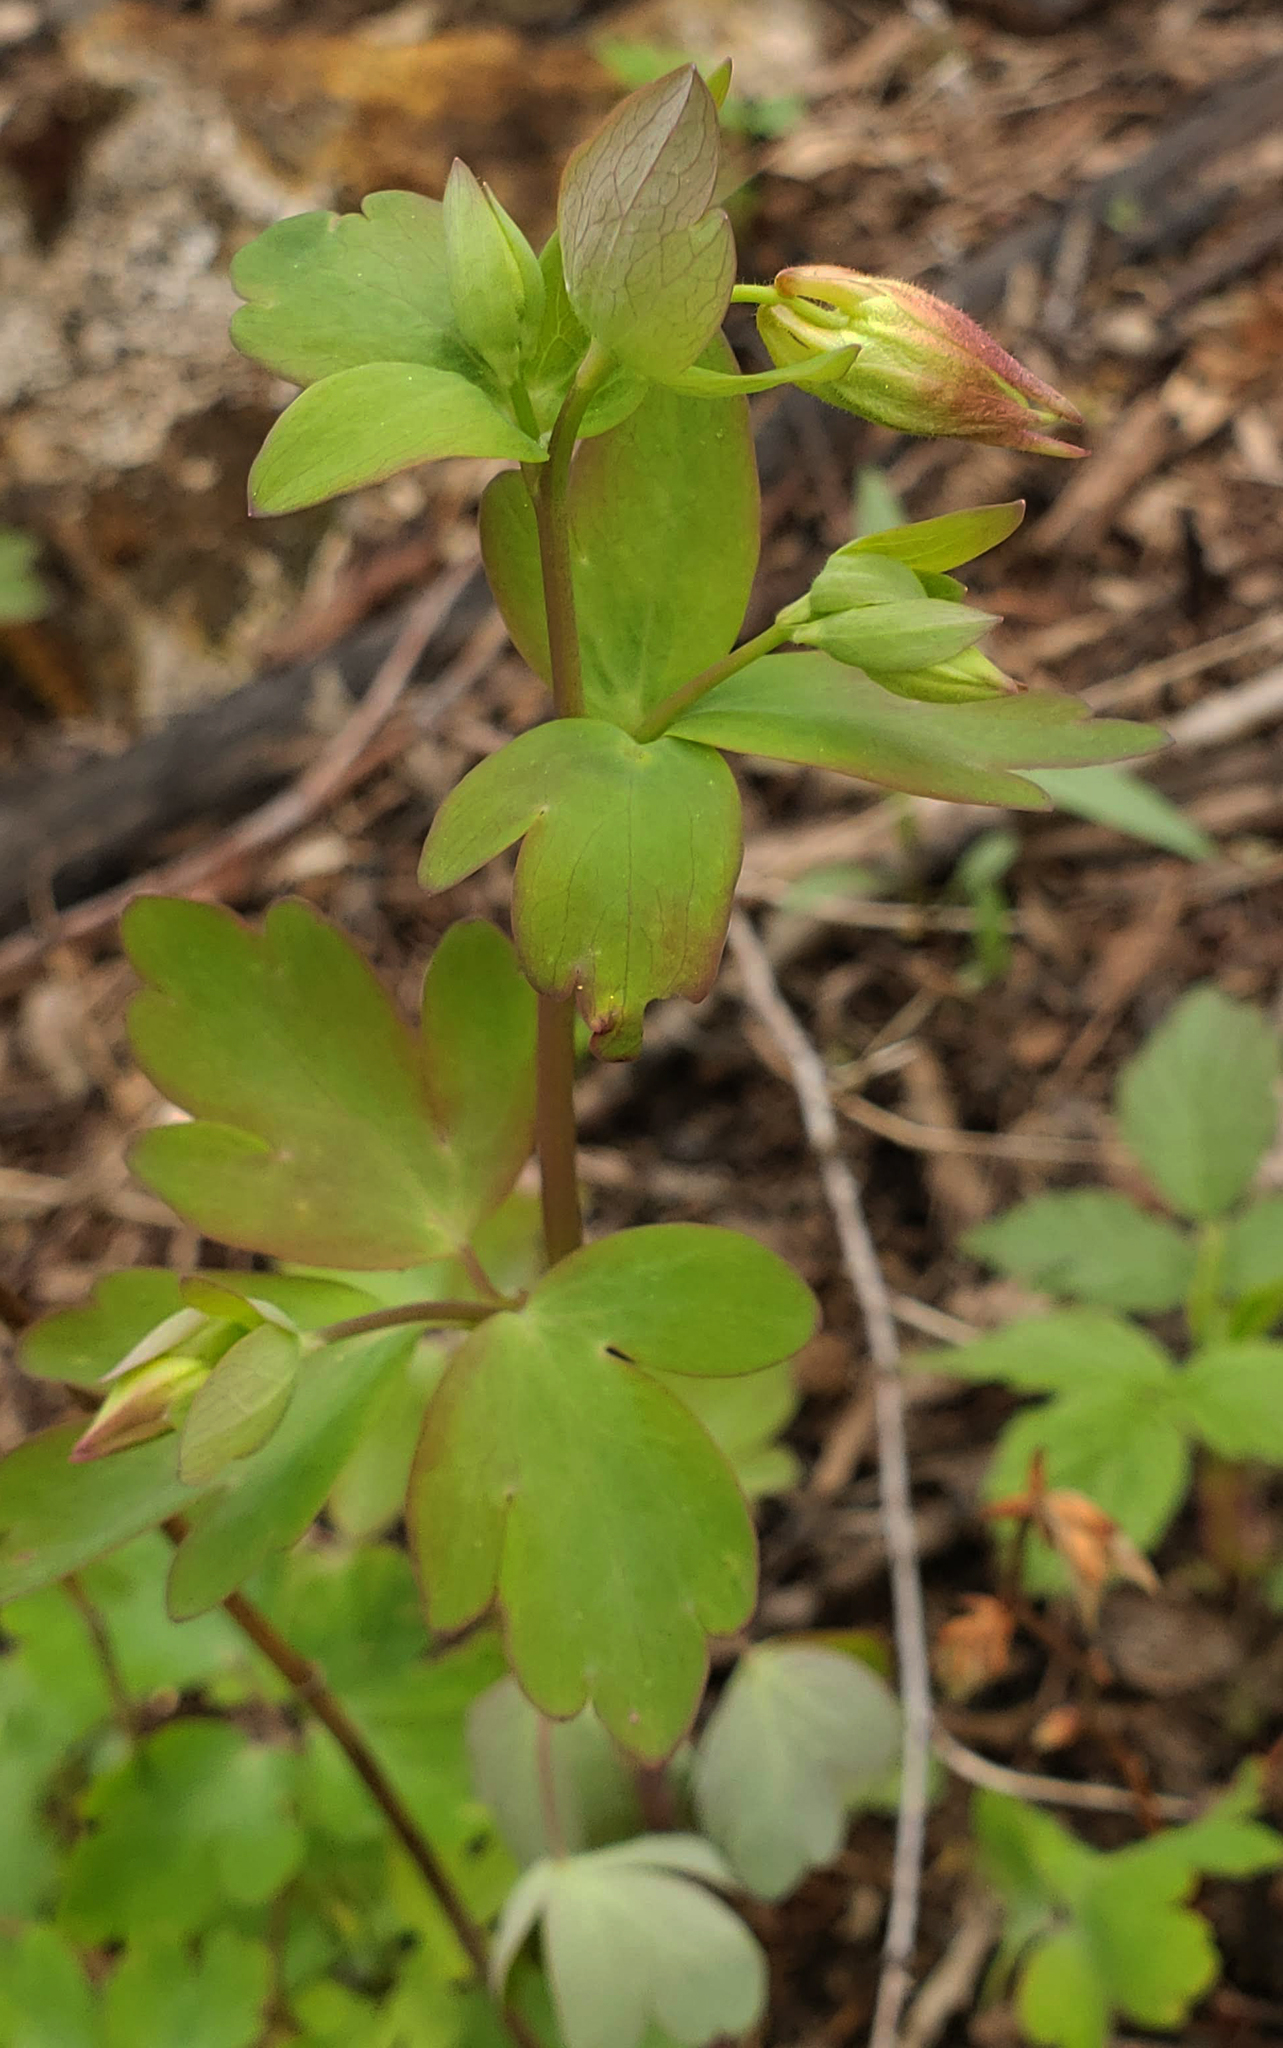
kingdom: Plantae
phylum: Tracheophyta
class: Magnoliopsida
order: Ranunculales
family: Ranunculaceae
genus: Aquilegia
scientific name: Aquilegia canadensis
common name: American columbine
